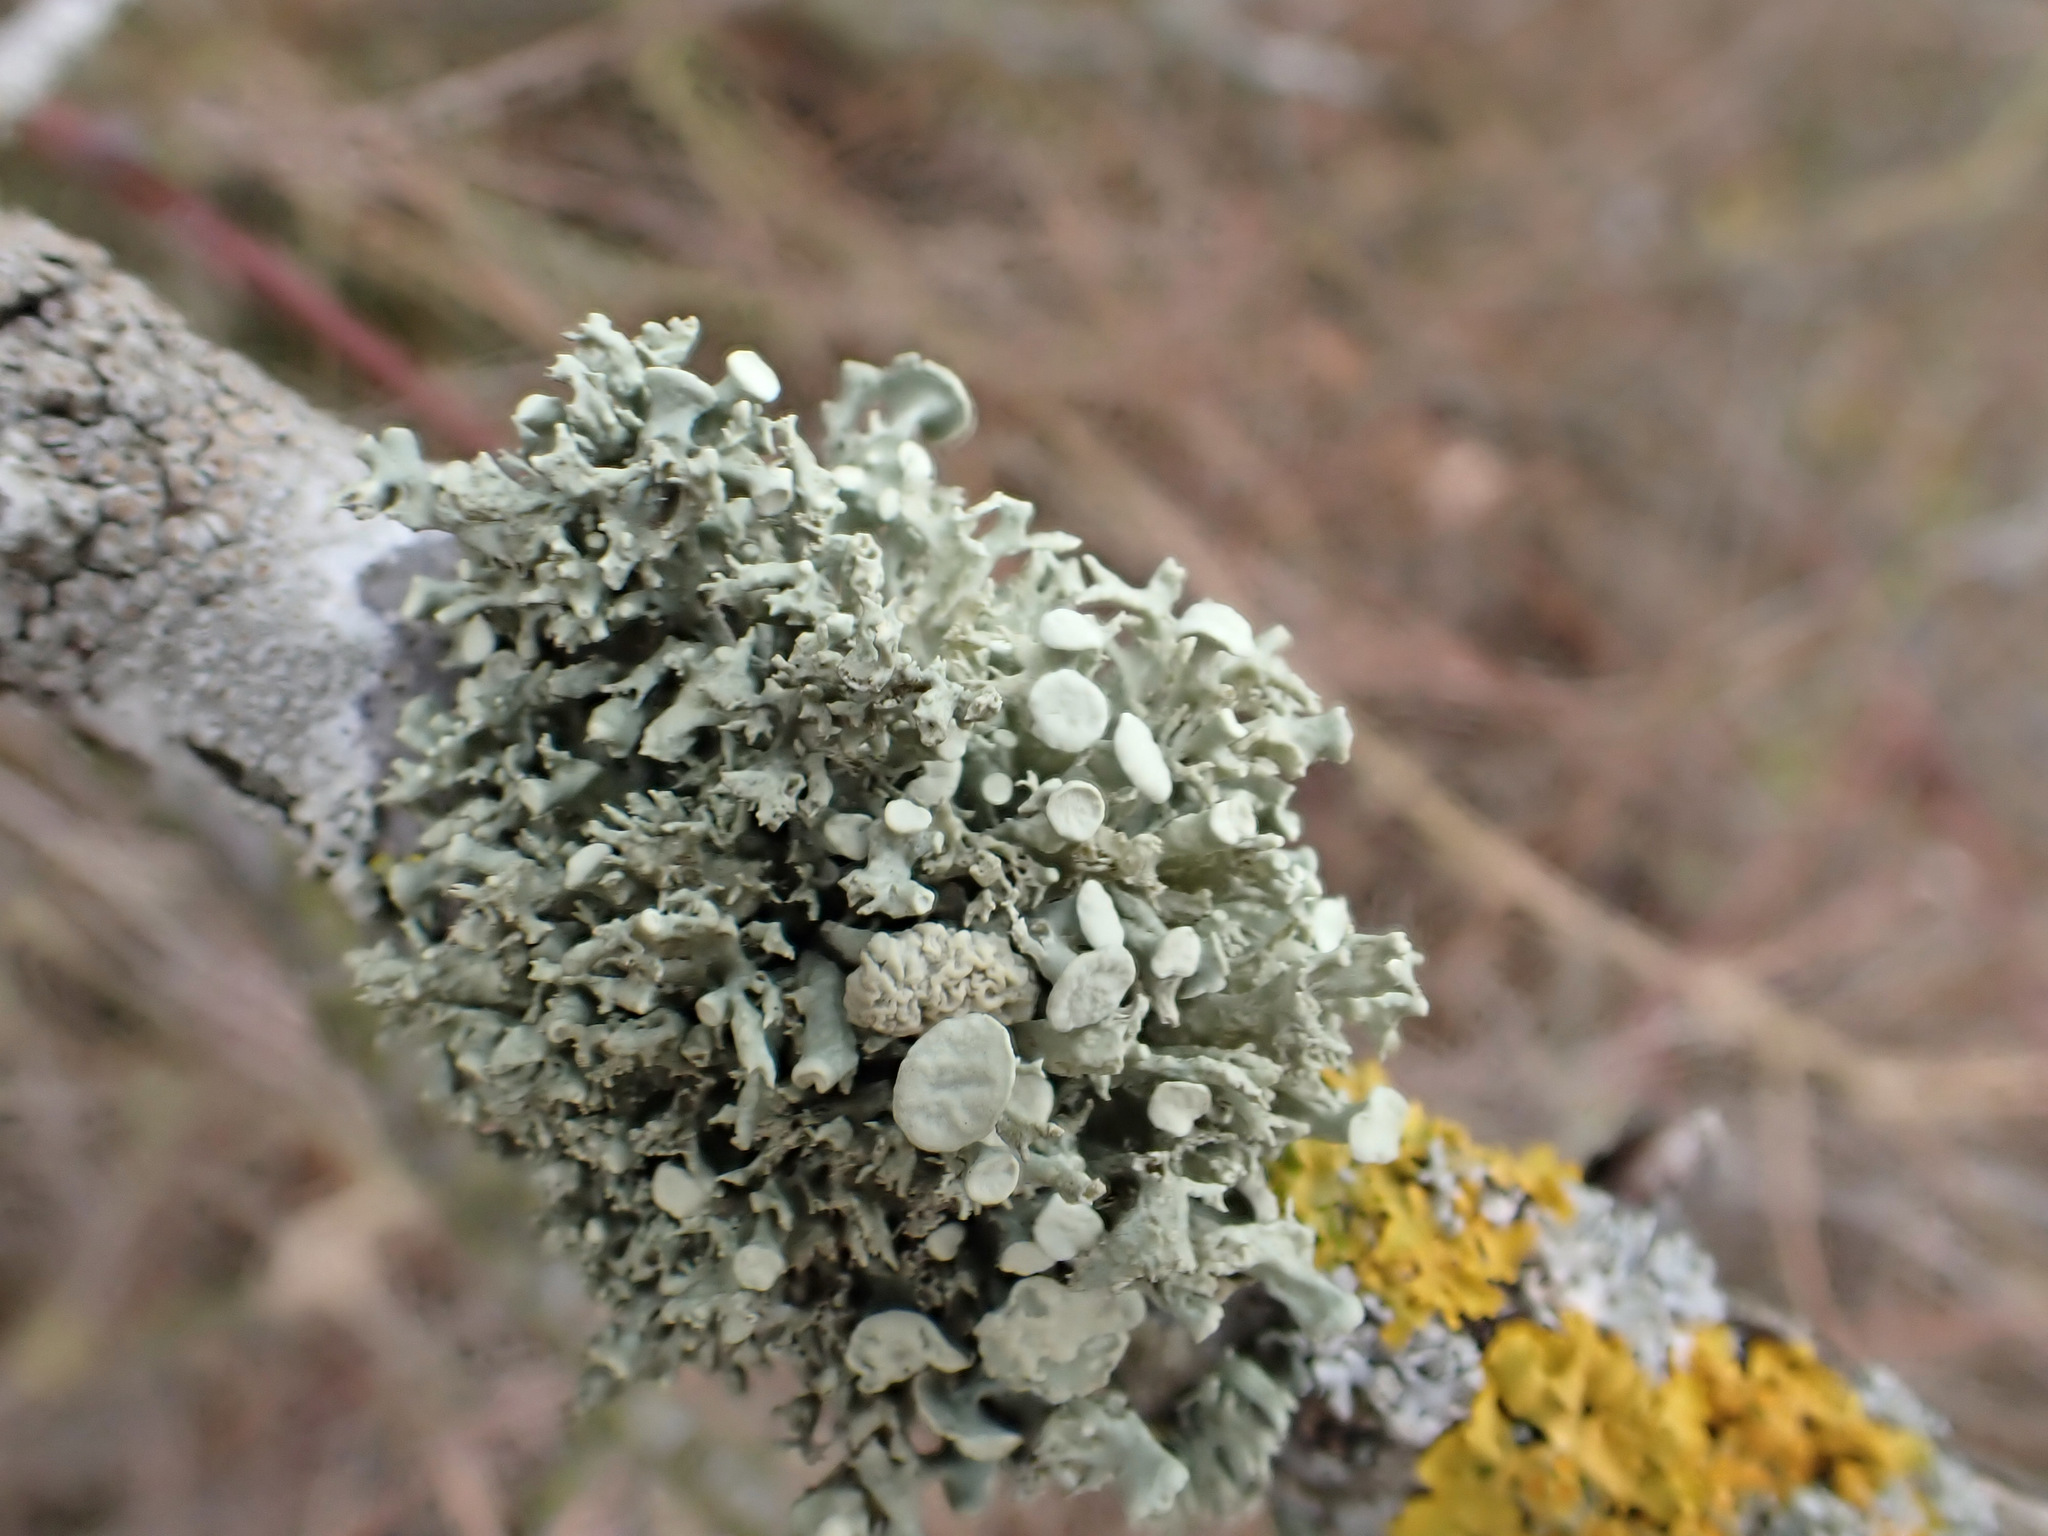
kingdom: Fungi
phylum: Ascomycota
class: Lecanoromycetes
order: Lecanorales
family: Ramalinaceae
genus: Ramalina
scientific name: Ramalina fastigiata
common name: Dotted ribbon lichen
